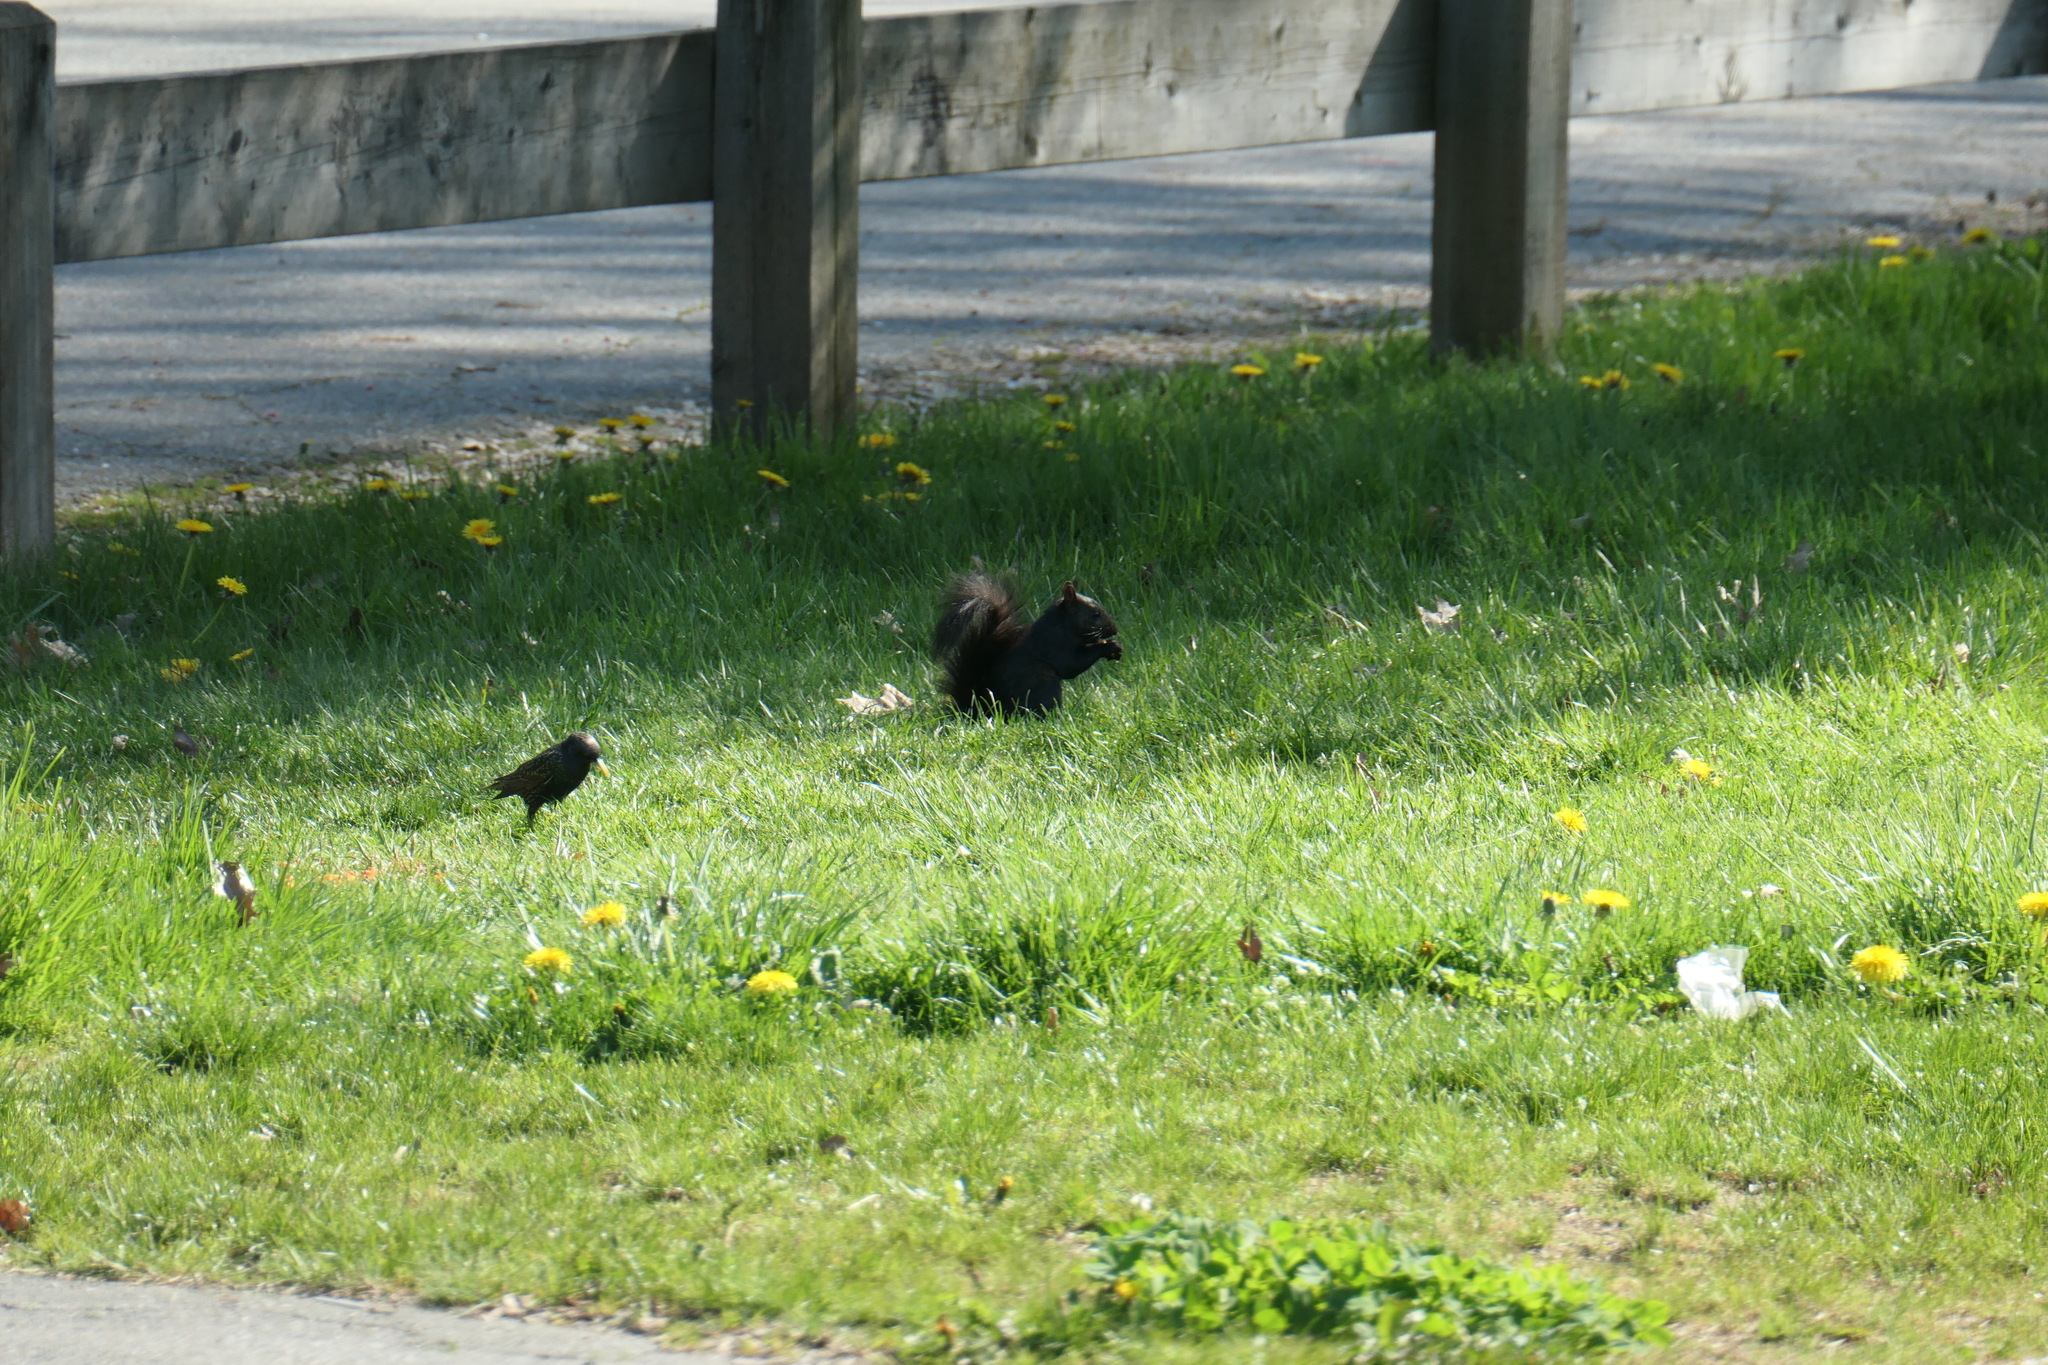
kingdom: Animalia
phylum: Chordata
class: Aves
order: Passeriformes
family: Sturnidae
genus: Sturnus
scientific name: Sturnus vulgaris
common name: Common starling
